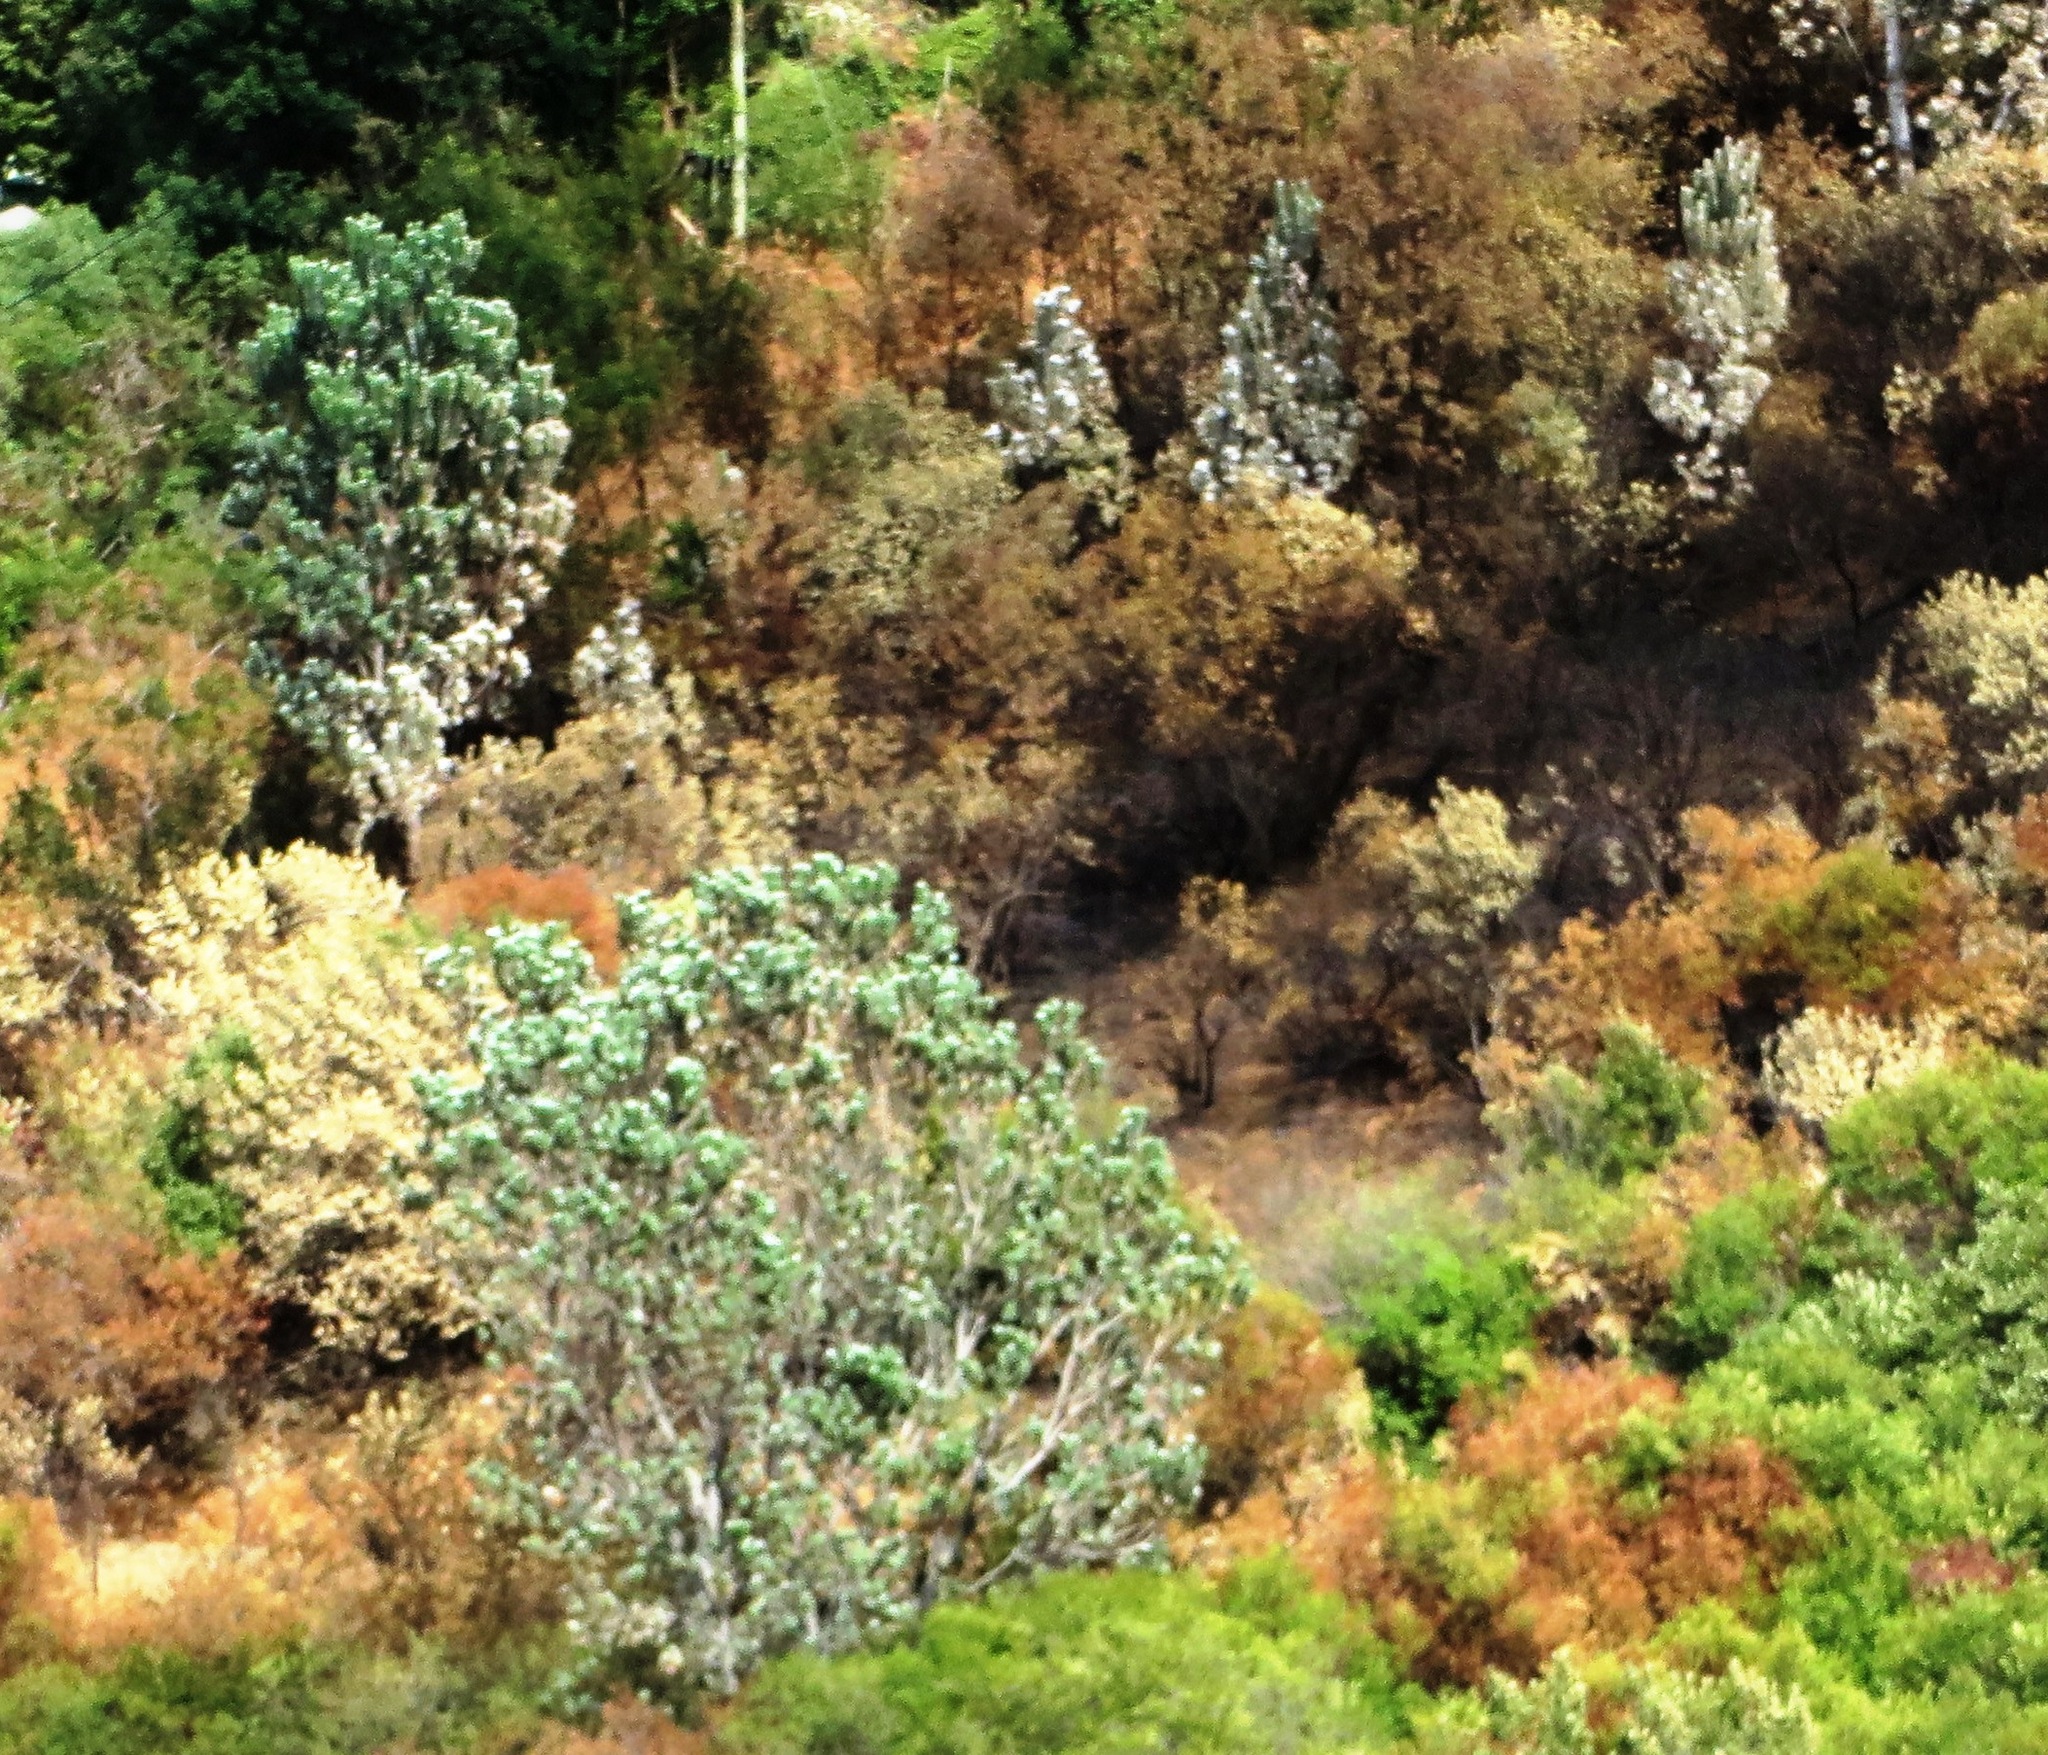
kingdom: Plantae
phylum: Tracheophyta
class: Magnoliopsida
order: Proteales
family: Proteaceae
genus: Leucadendron
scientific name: Leucadendron argenteum
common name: Cape silver tree
